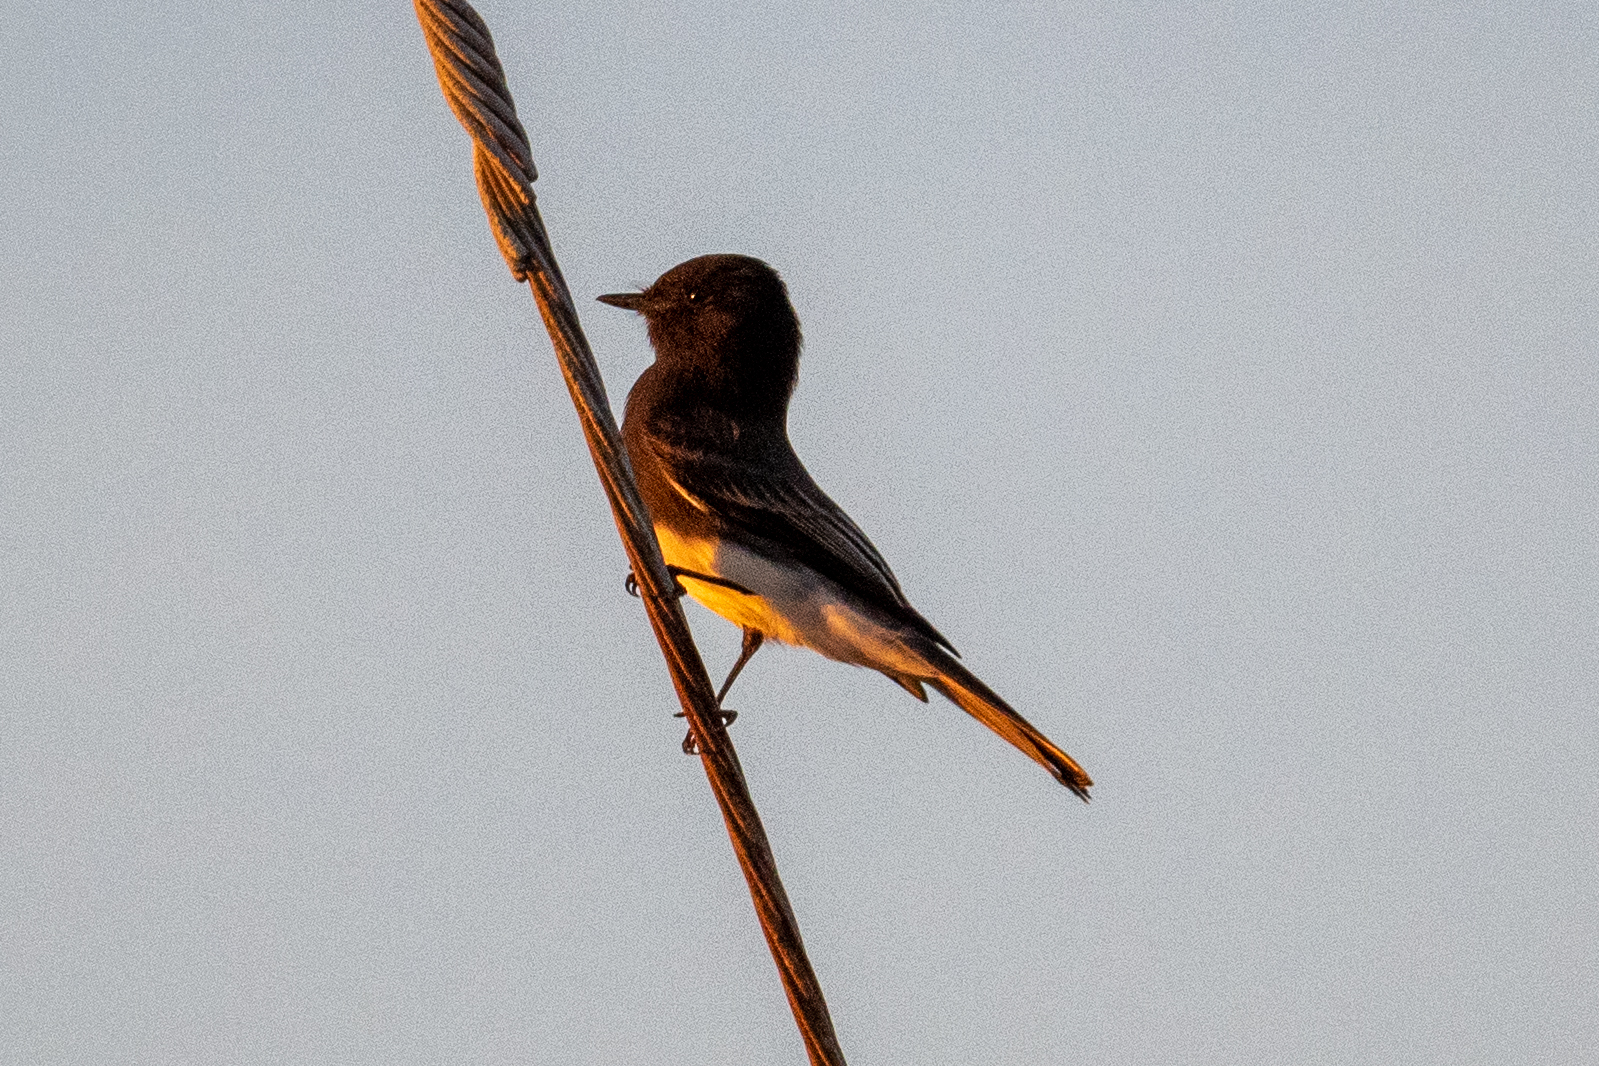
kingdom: Animalia
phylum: Chordata
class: Aves
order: Passeriformes
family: Tyrannidae
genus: Sayornis
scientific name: Sayornis nigricans
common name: Black phoebe
